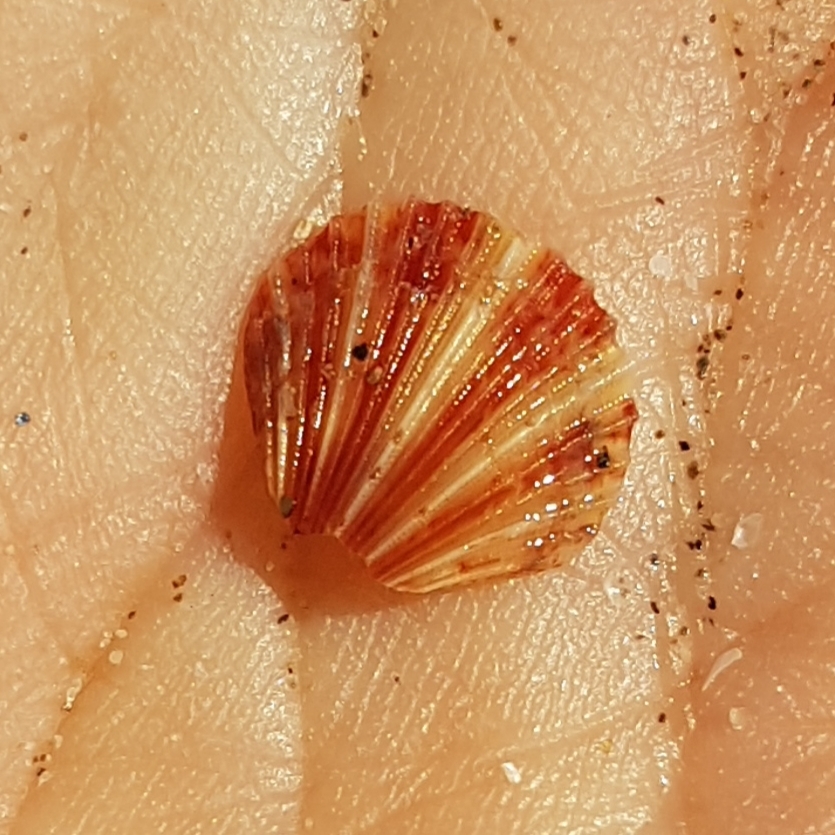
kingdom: Animalia
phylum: Mollusca
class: Bivalvia
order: Pectinida
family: Pectinidae
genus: Aequipecten
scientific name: Aequipecten opercularis
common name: Queen scallop
